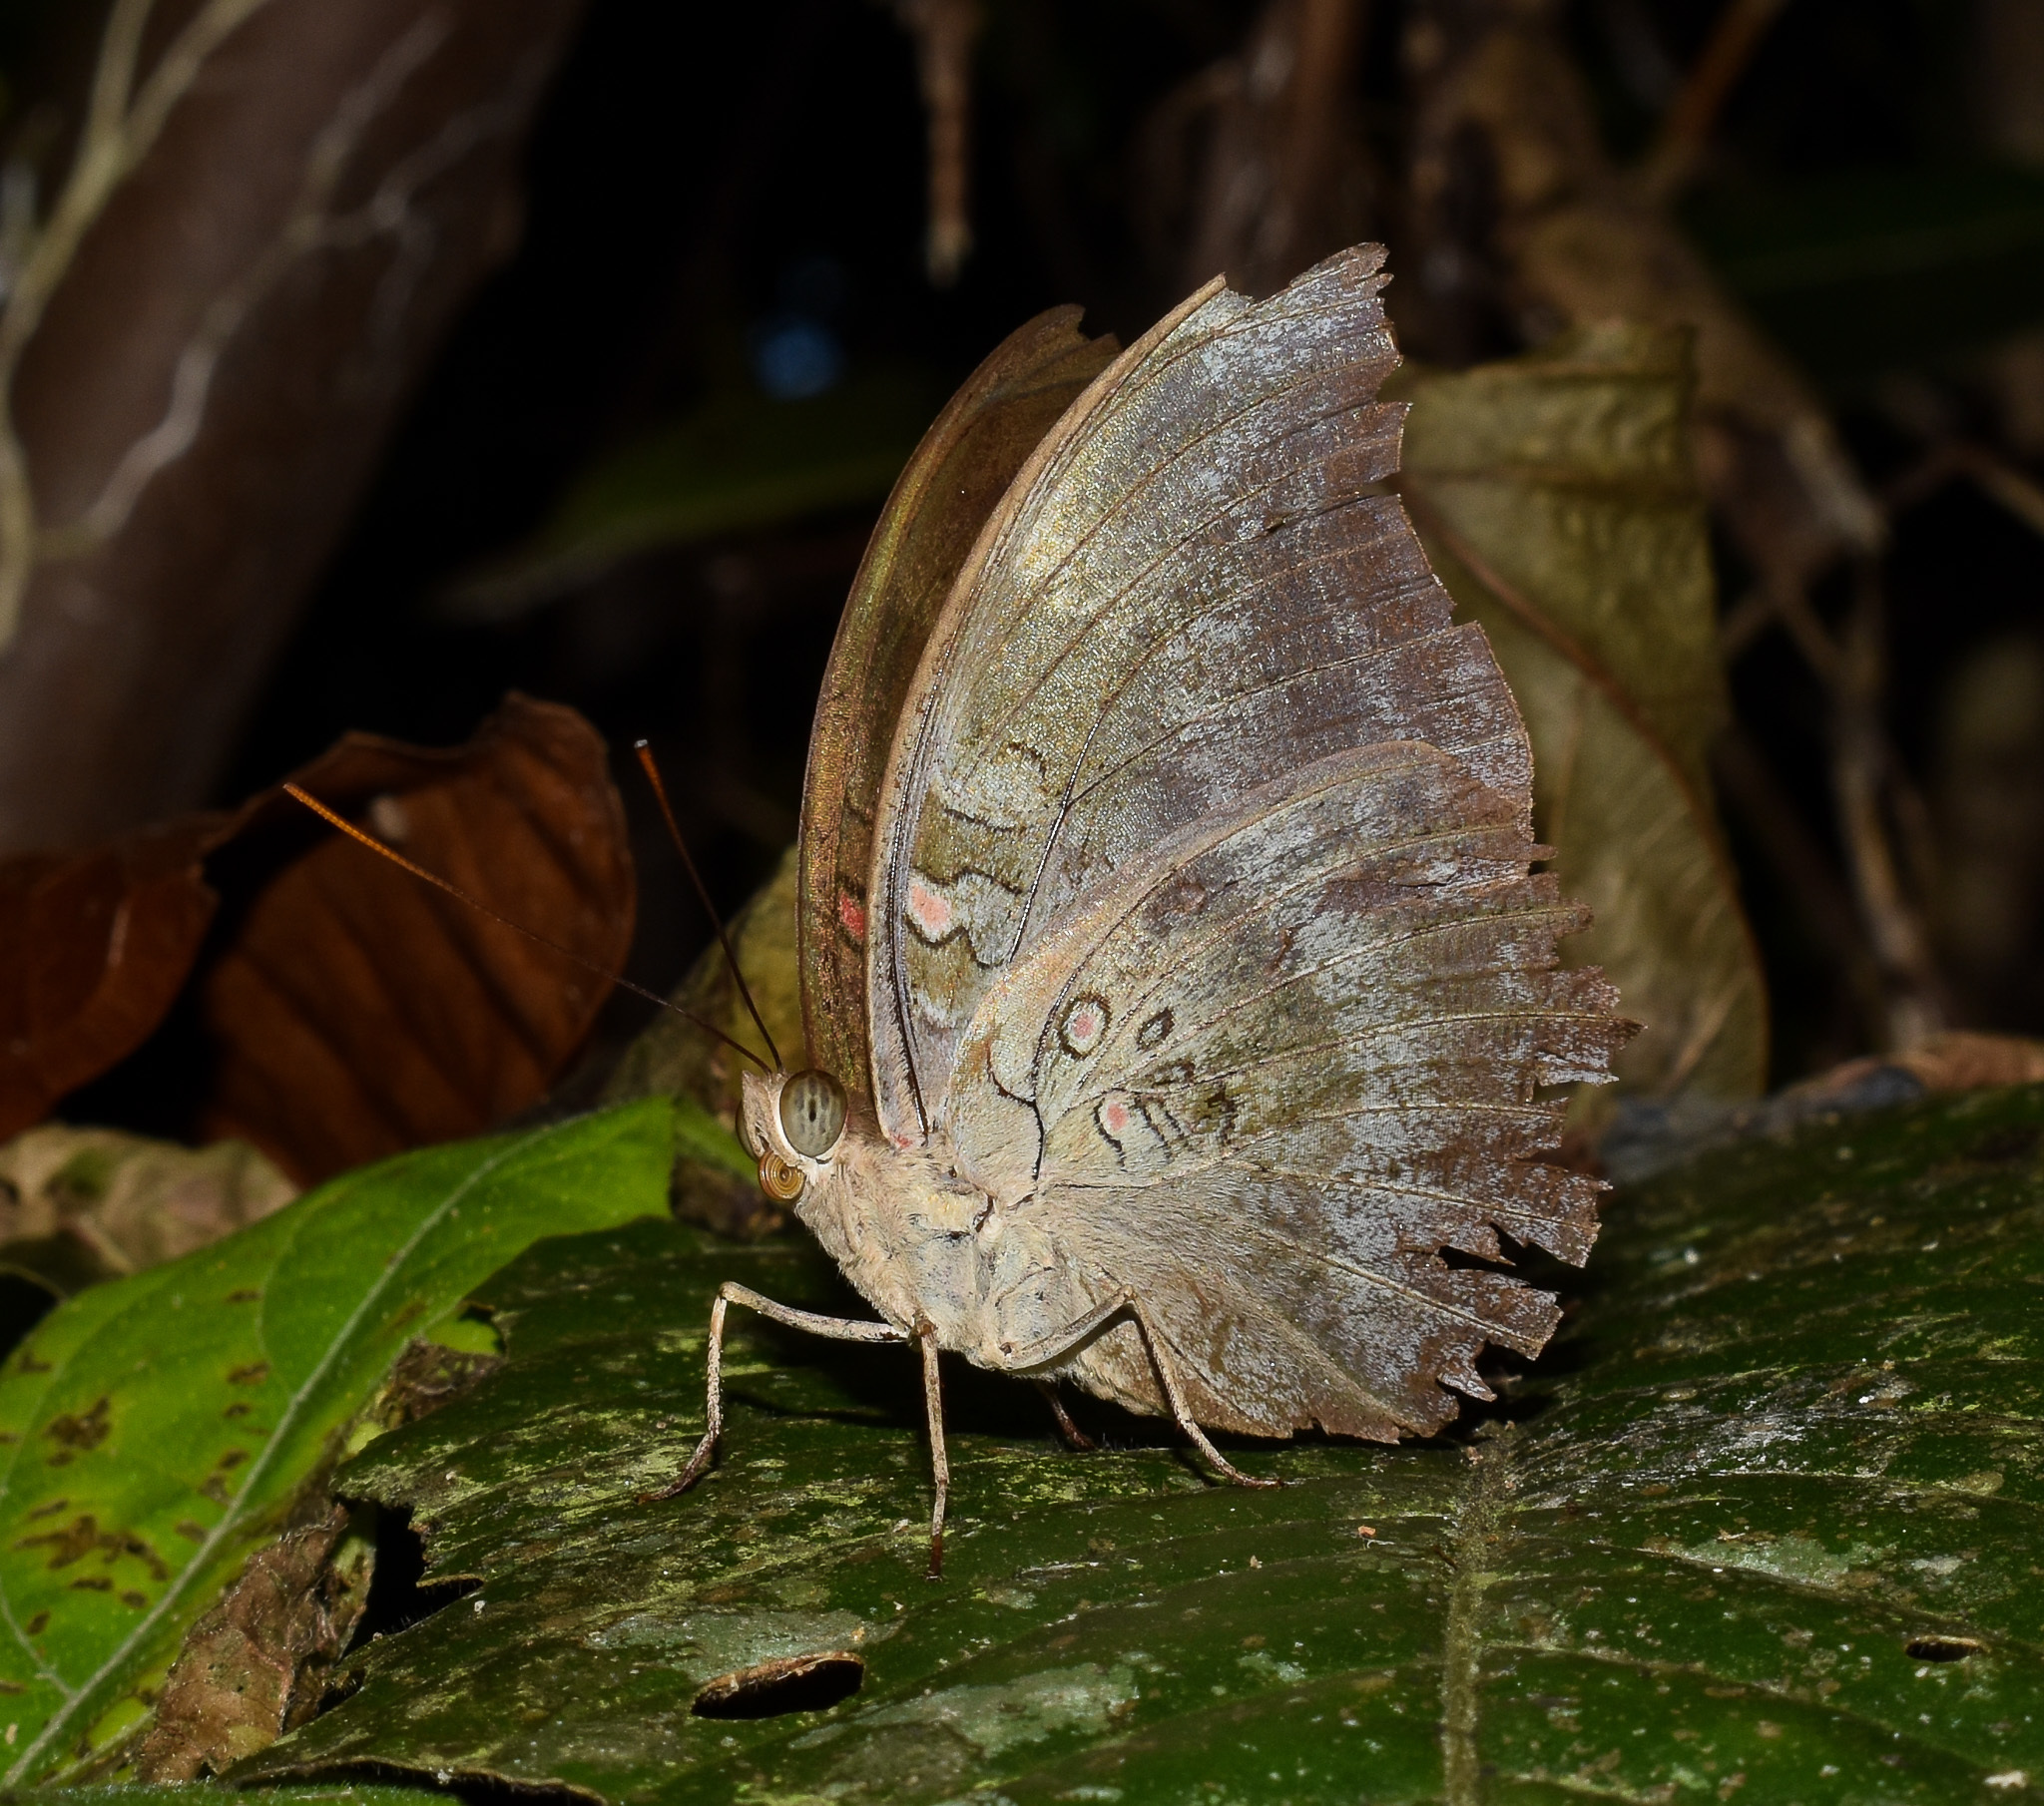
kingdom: Animalia
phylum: Arthropoda
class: Insecta
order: Lepidoptera
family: Nymphalidae
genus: Euthalia
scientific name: Euthalia Dophla evelina
